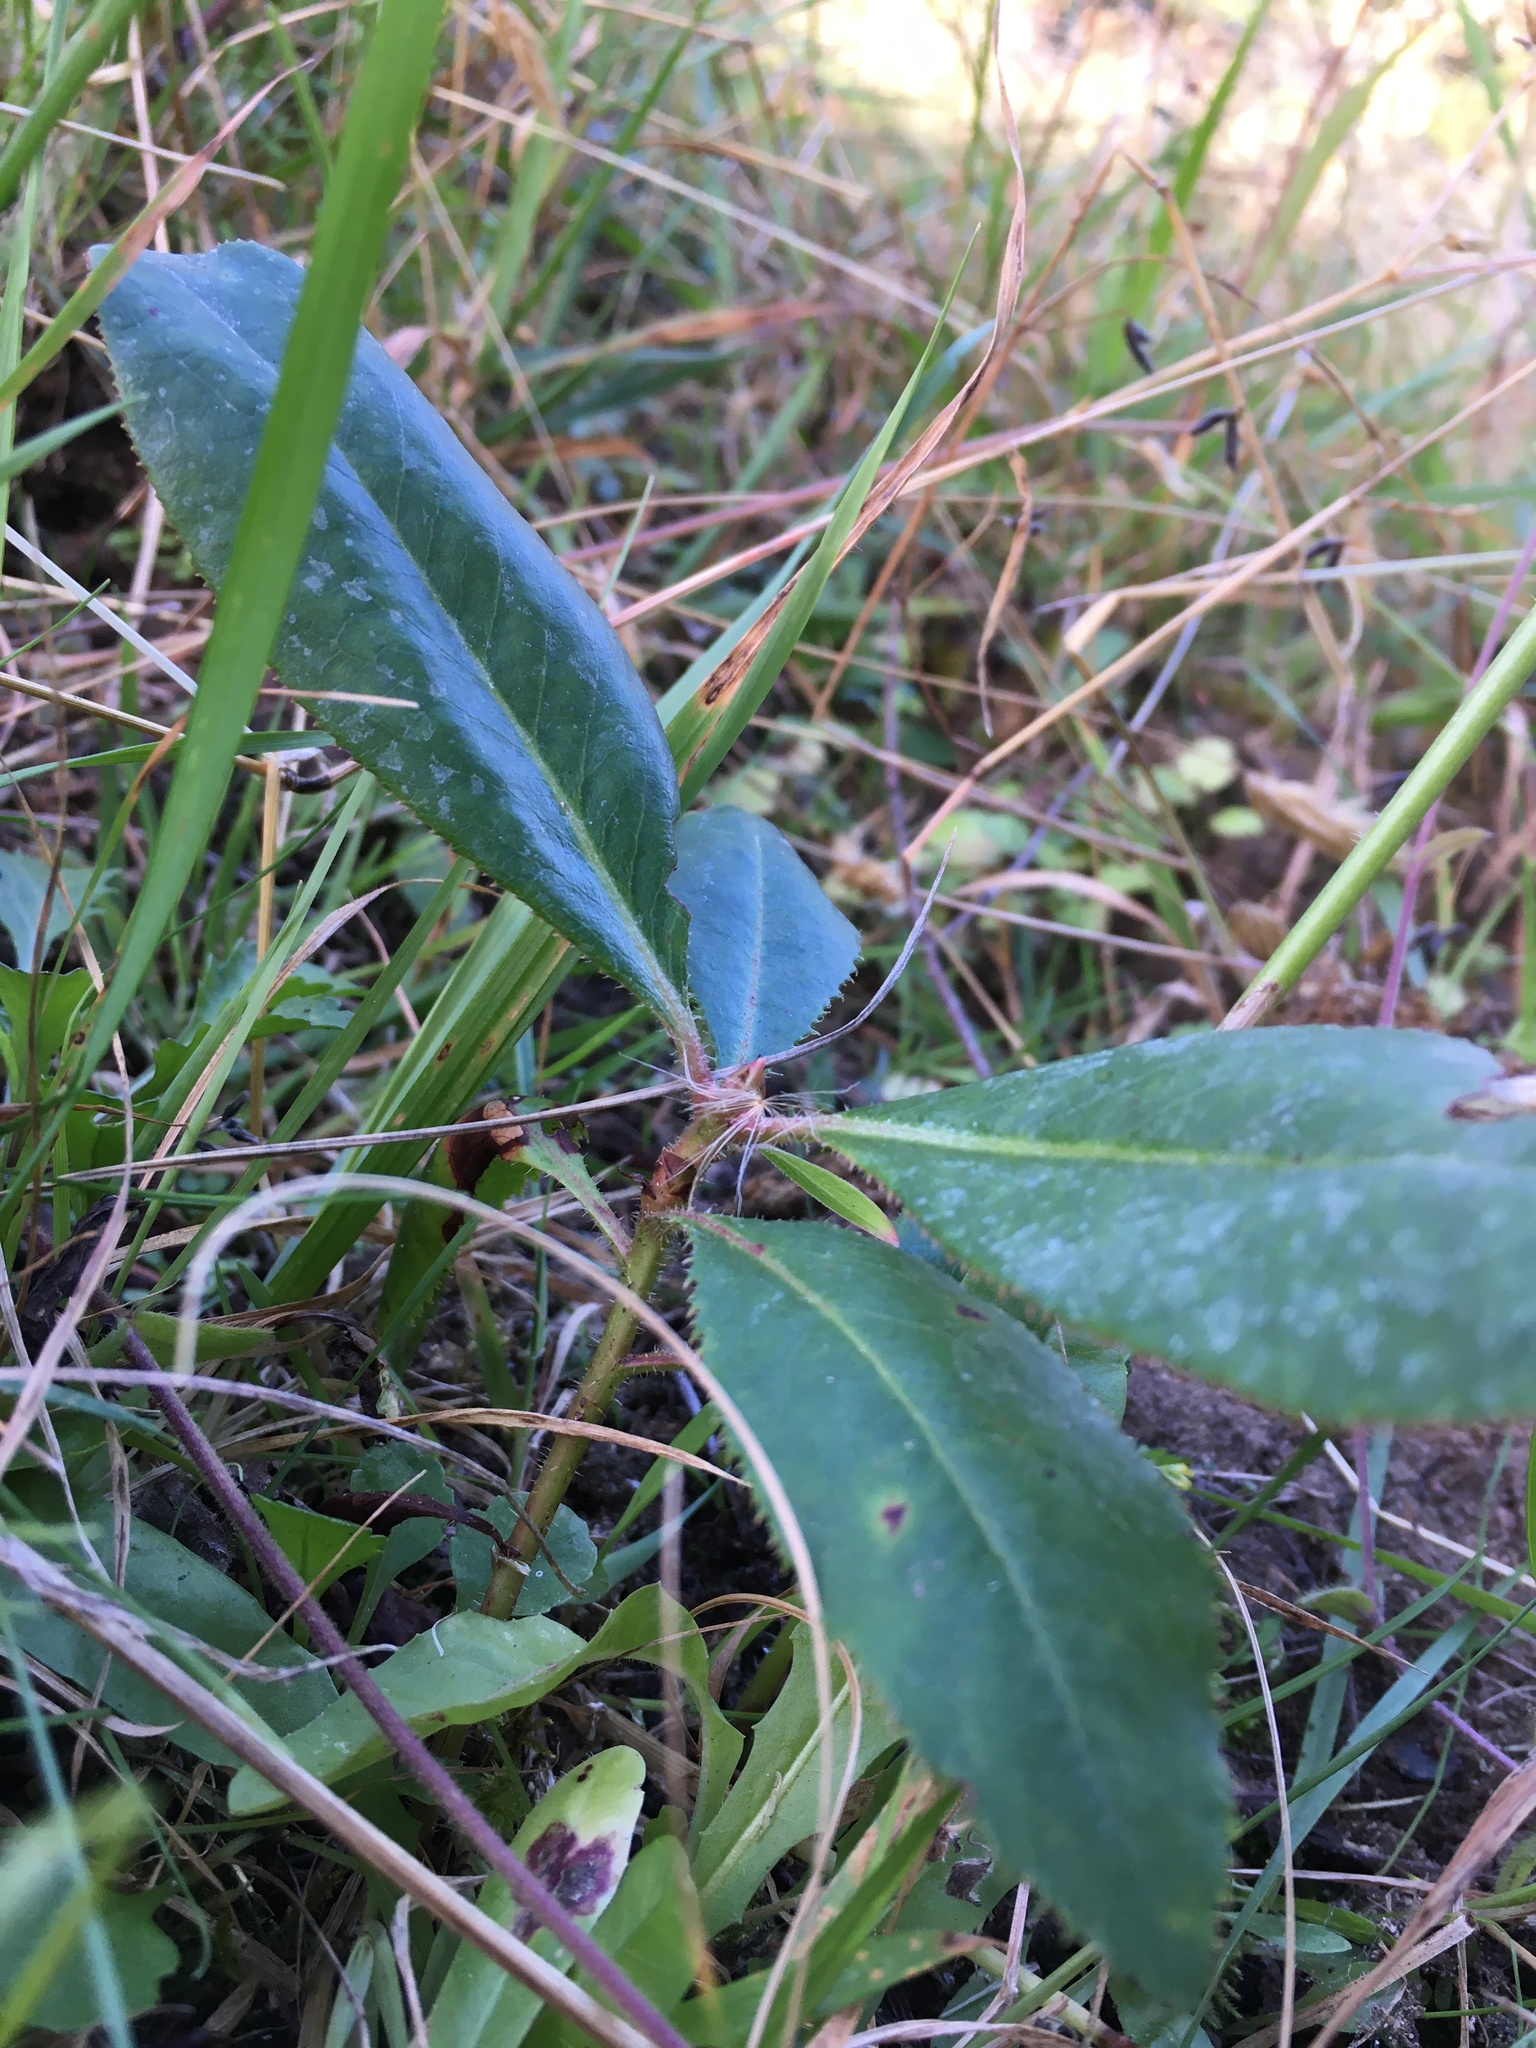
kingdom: Plantae
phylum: Tracheophyta
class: Magnoliopsida
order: Ericales
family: Ericaceae
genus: Arbutus
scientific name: Arbutus menziesii
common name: Pacific madrone
